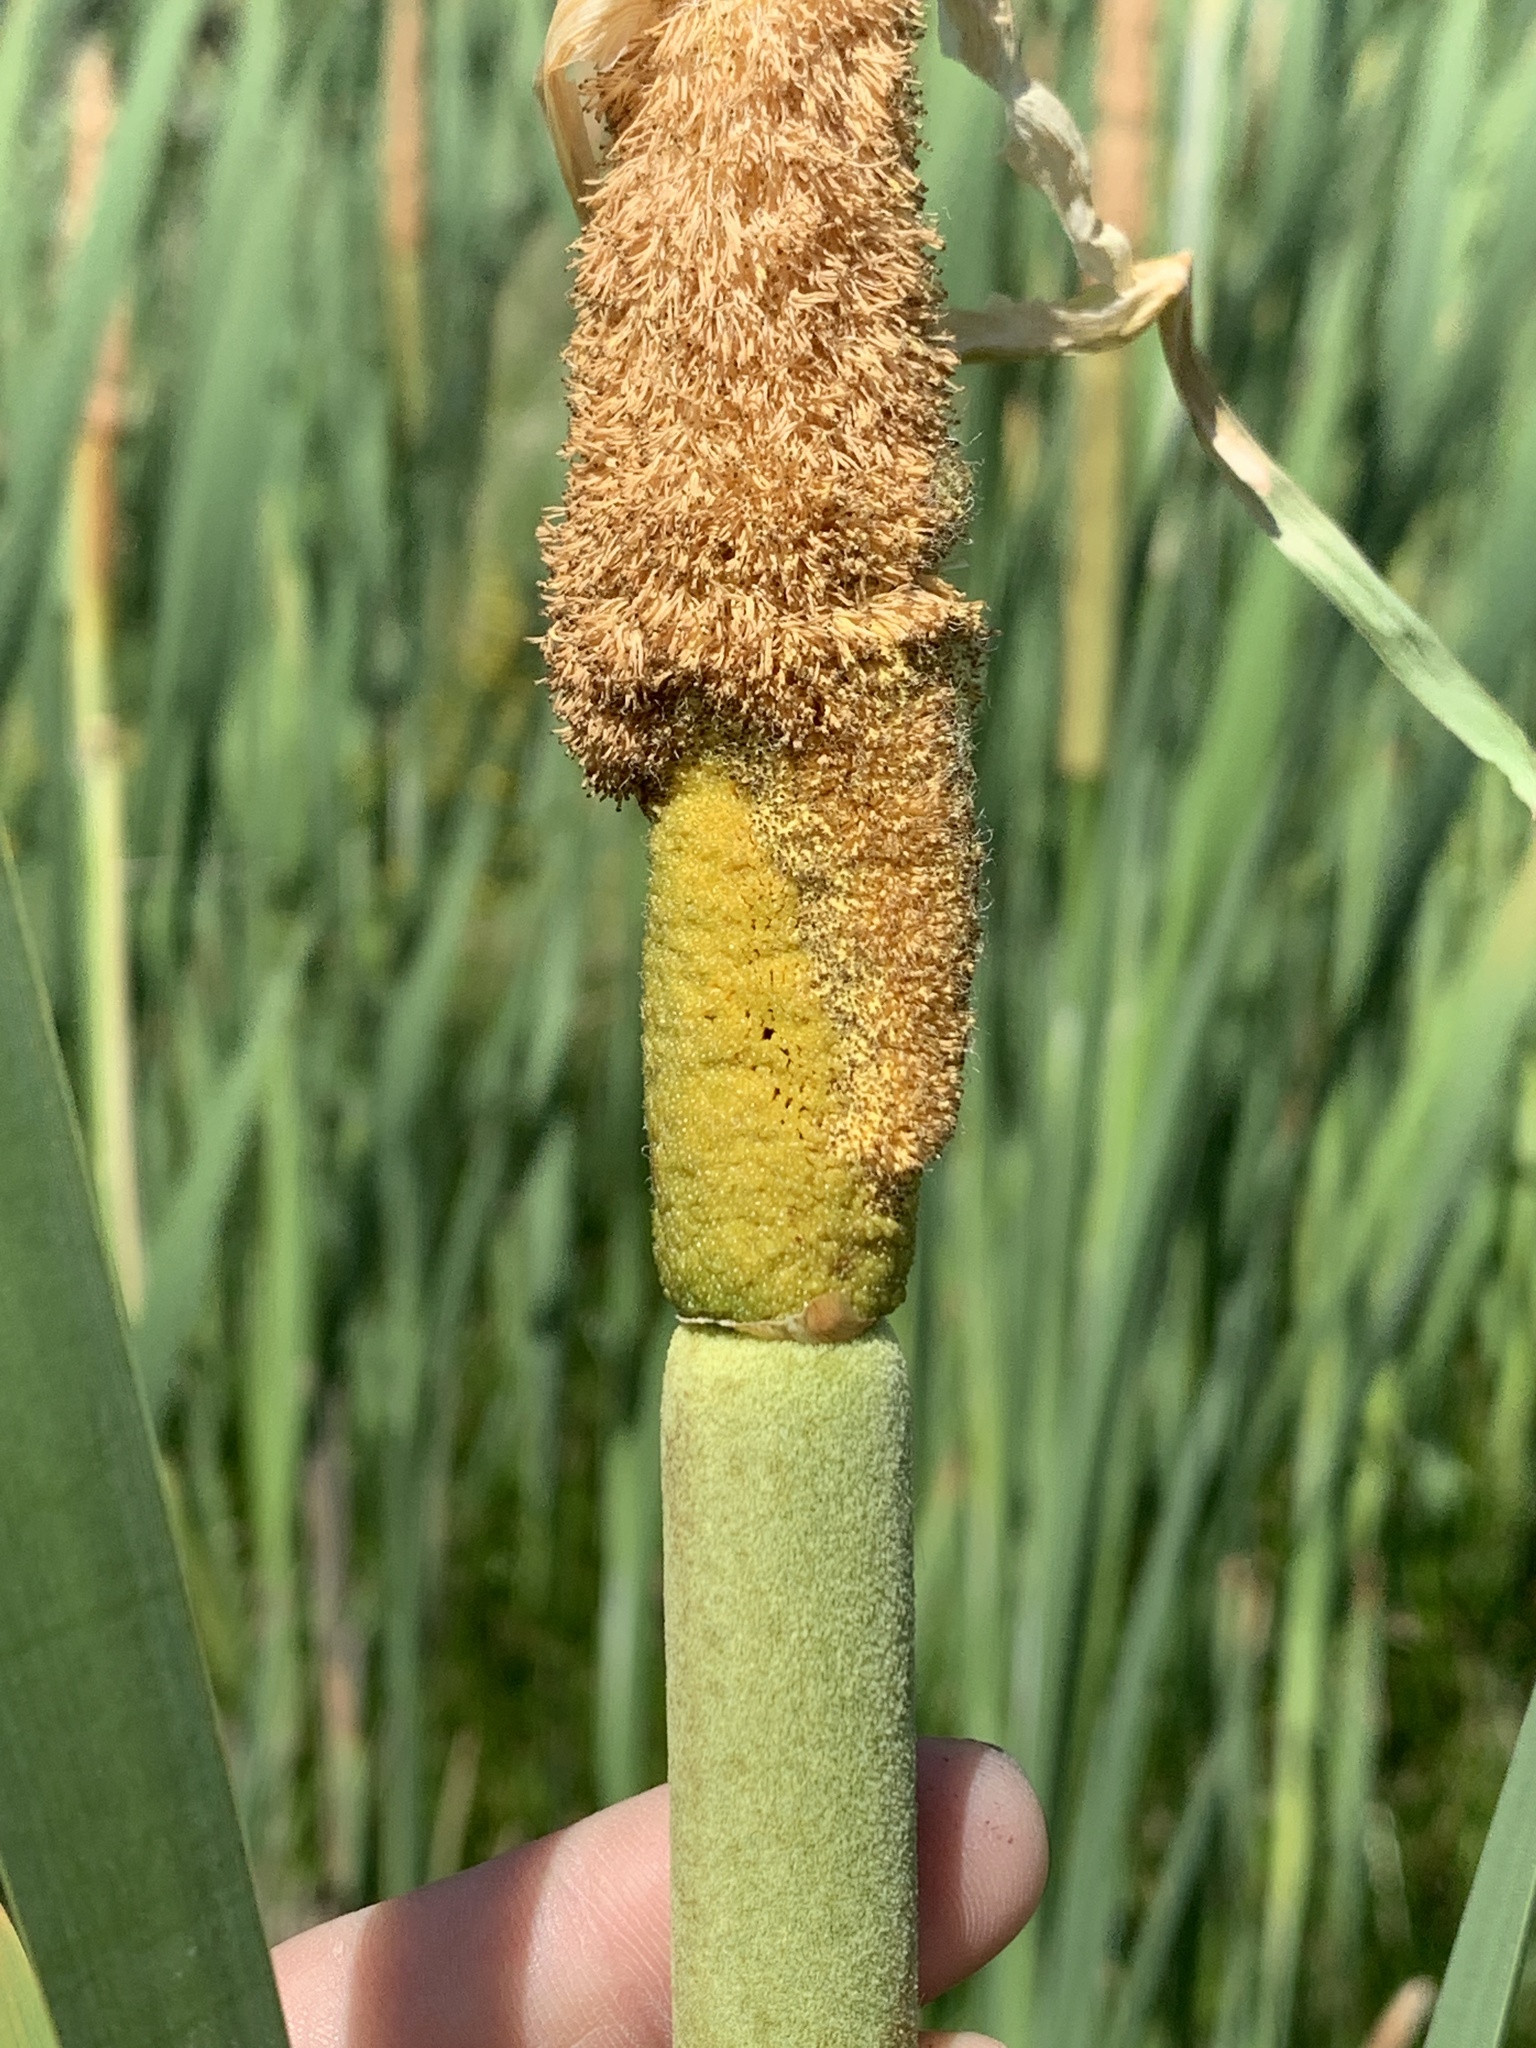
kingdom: Plantae
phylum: Tracheophyta
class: Liliopsida
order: Poales
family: Typhaceae
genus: Typha
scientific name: Typha latifolia
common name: Broadleaf cattail
